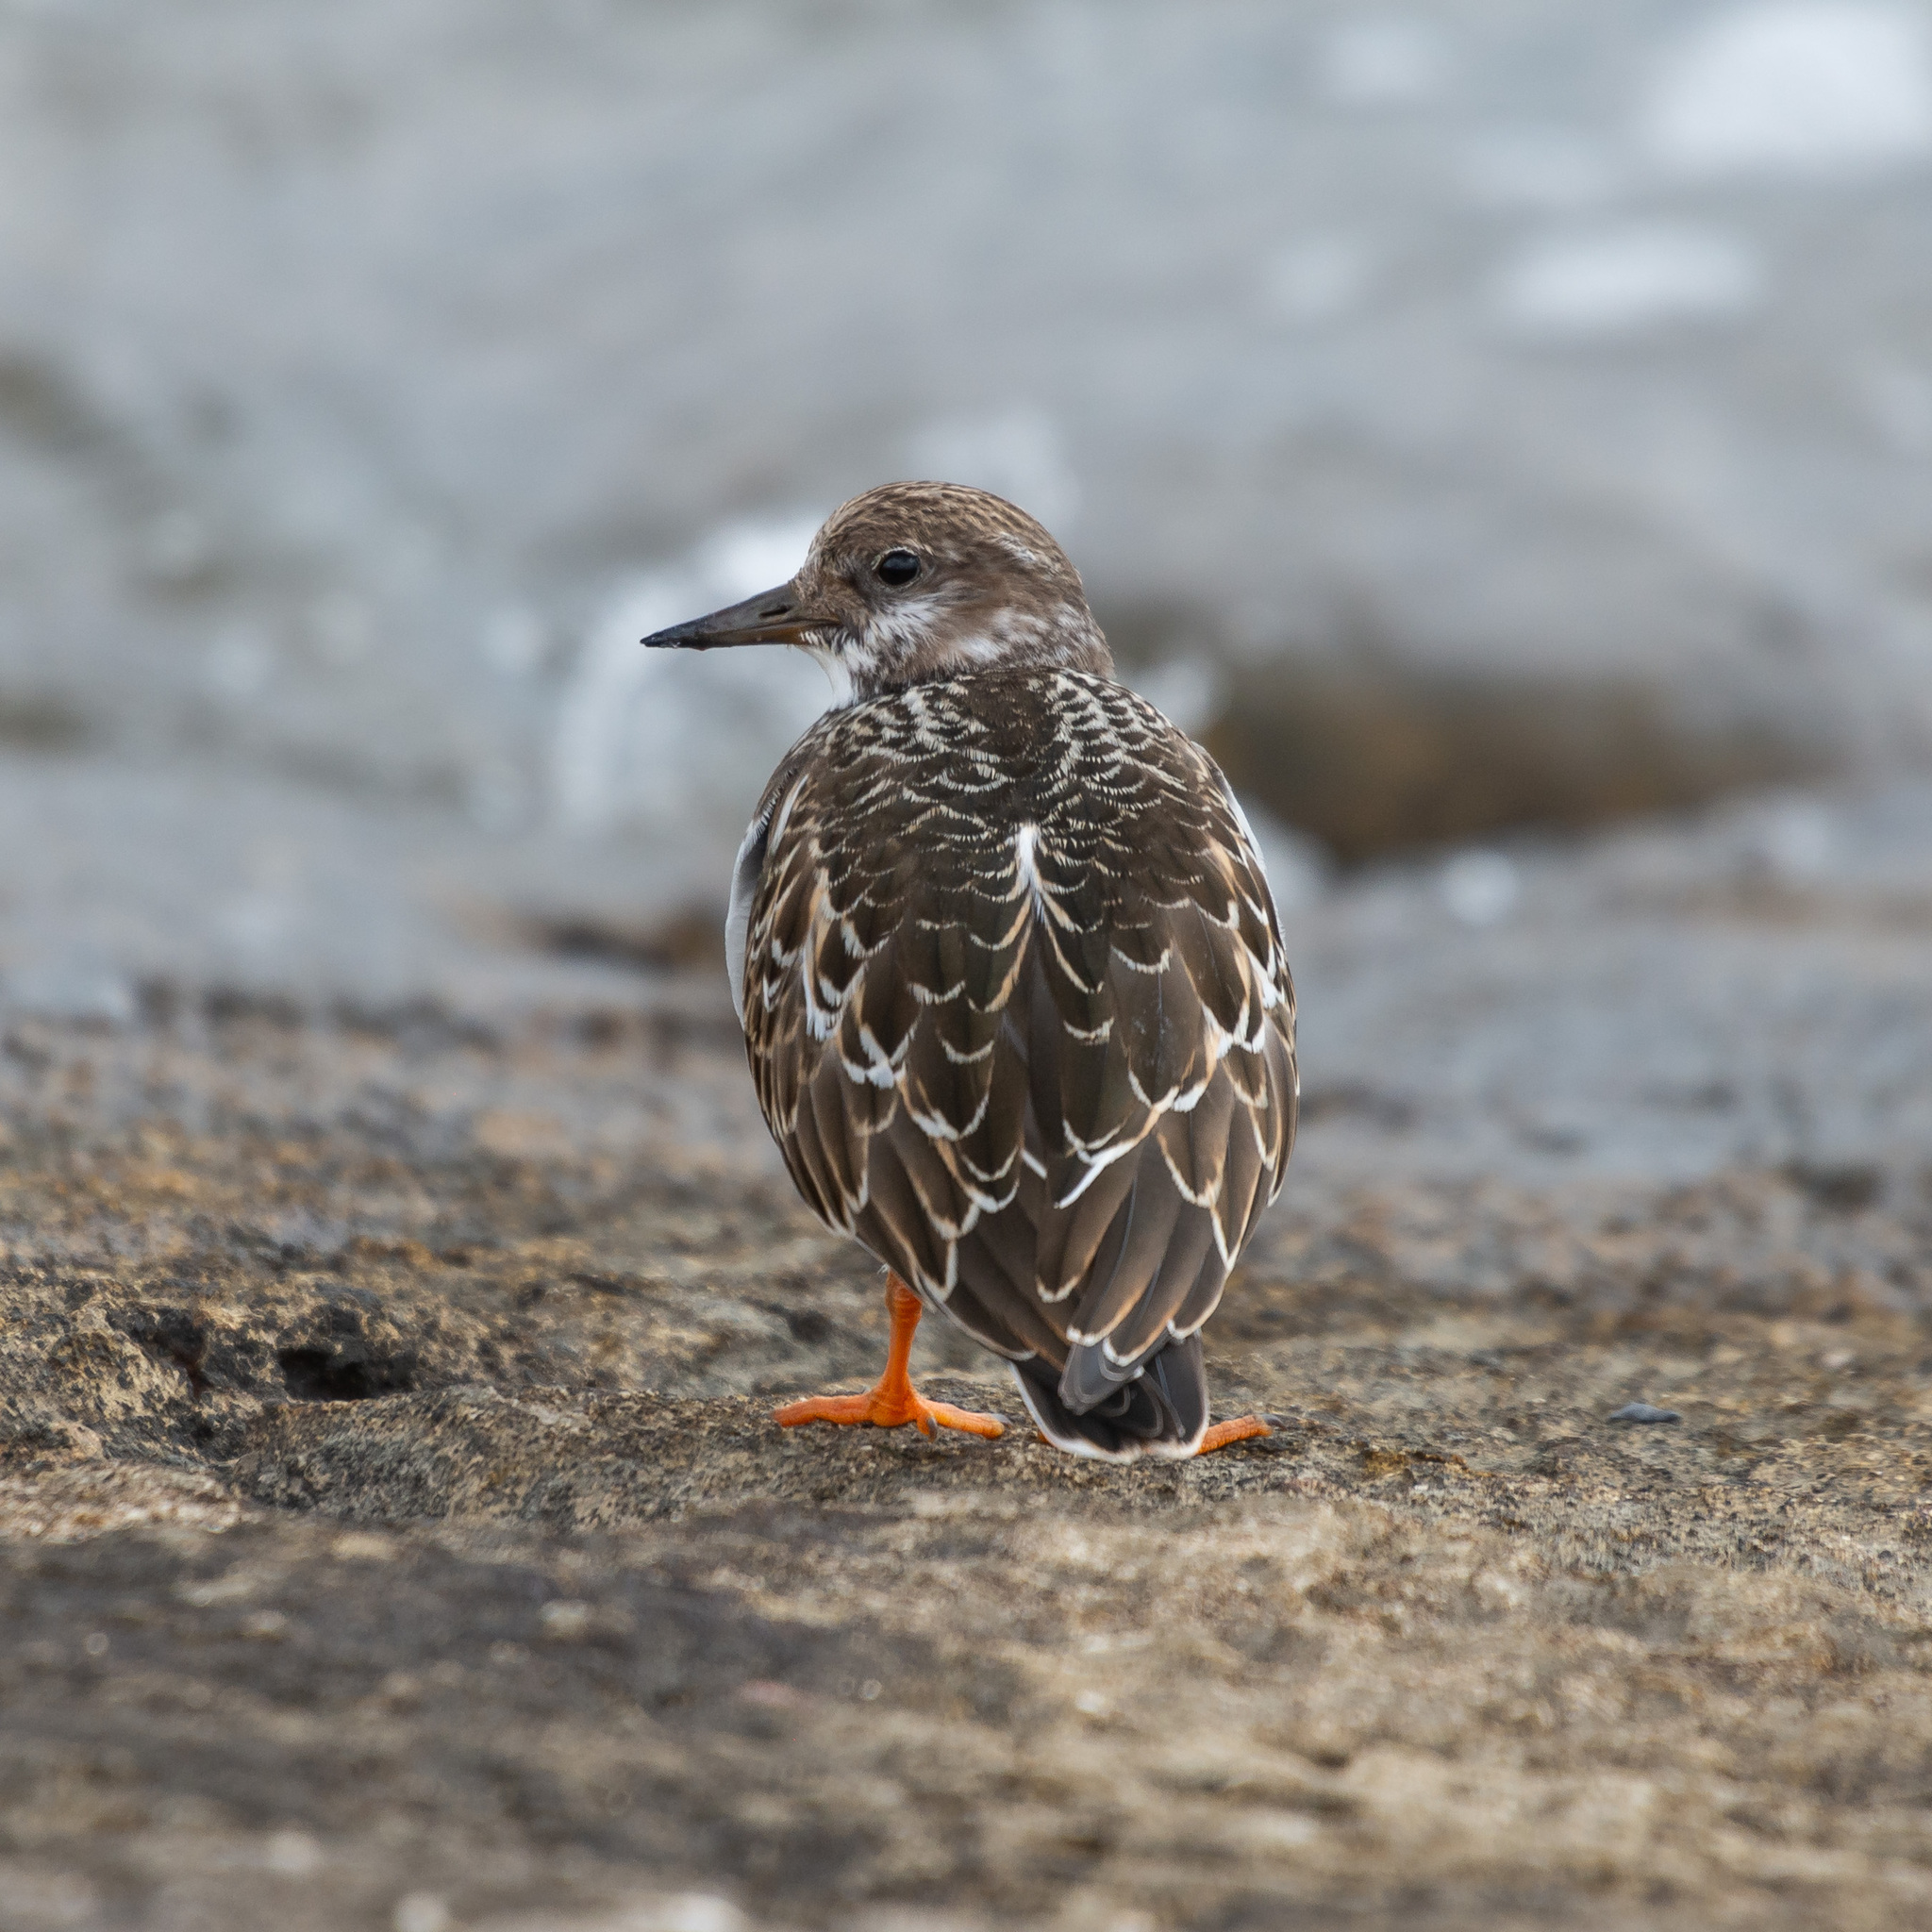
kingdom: Animalia
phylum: Chordata
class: Aves
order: Charadriiformes
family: Scolopacidae
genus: Arenaria
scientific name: Arenaria interpres
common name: Ruddy turnstone
